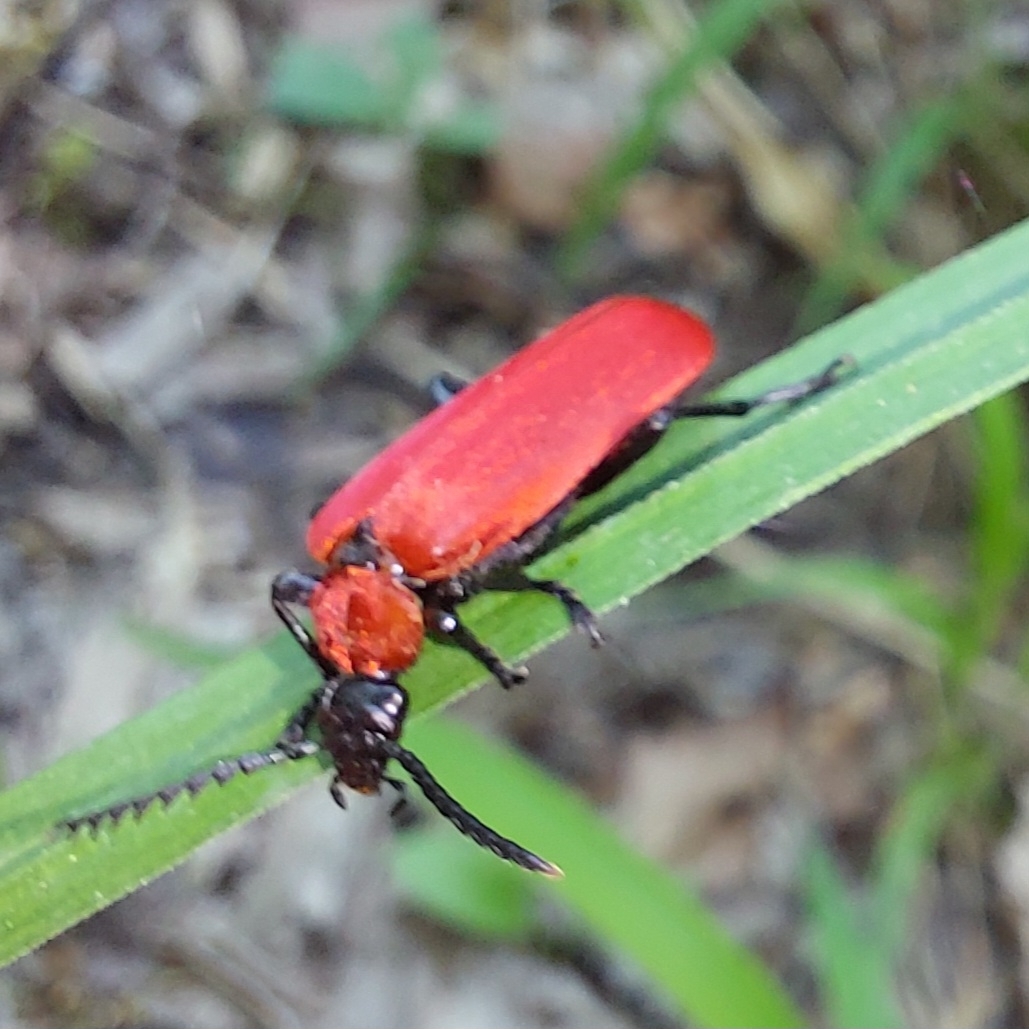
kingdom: Animalia
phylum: Arthropoda
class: Insecta
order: Coleoptera
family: Pyrochroidae
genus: Pyrochroa
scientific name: Pyrochroa coccinea
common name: Black-headed cardinal beetle
